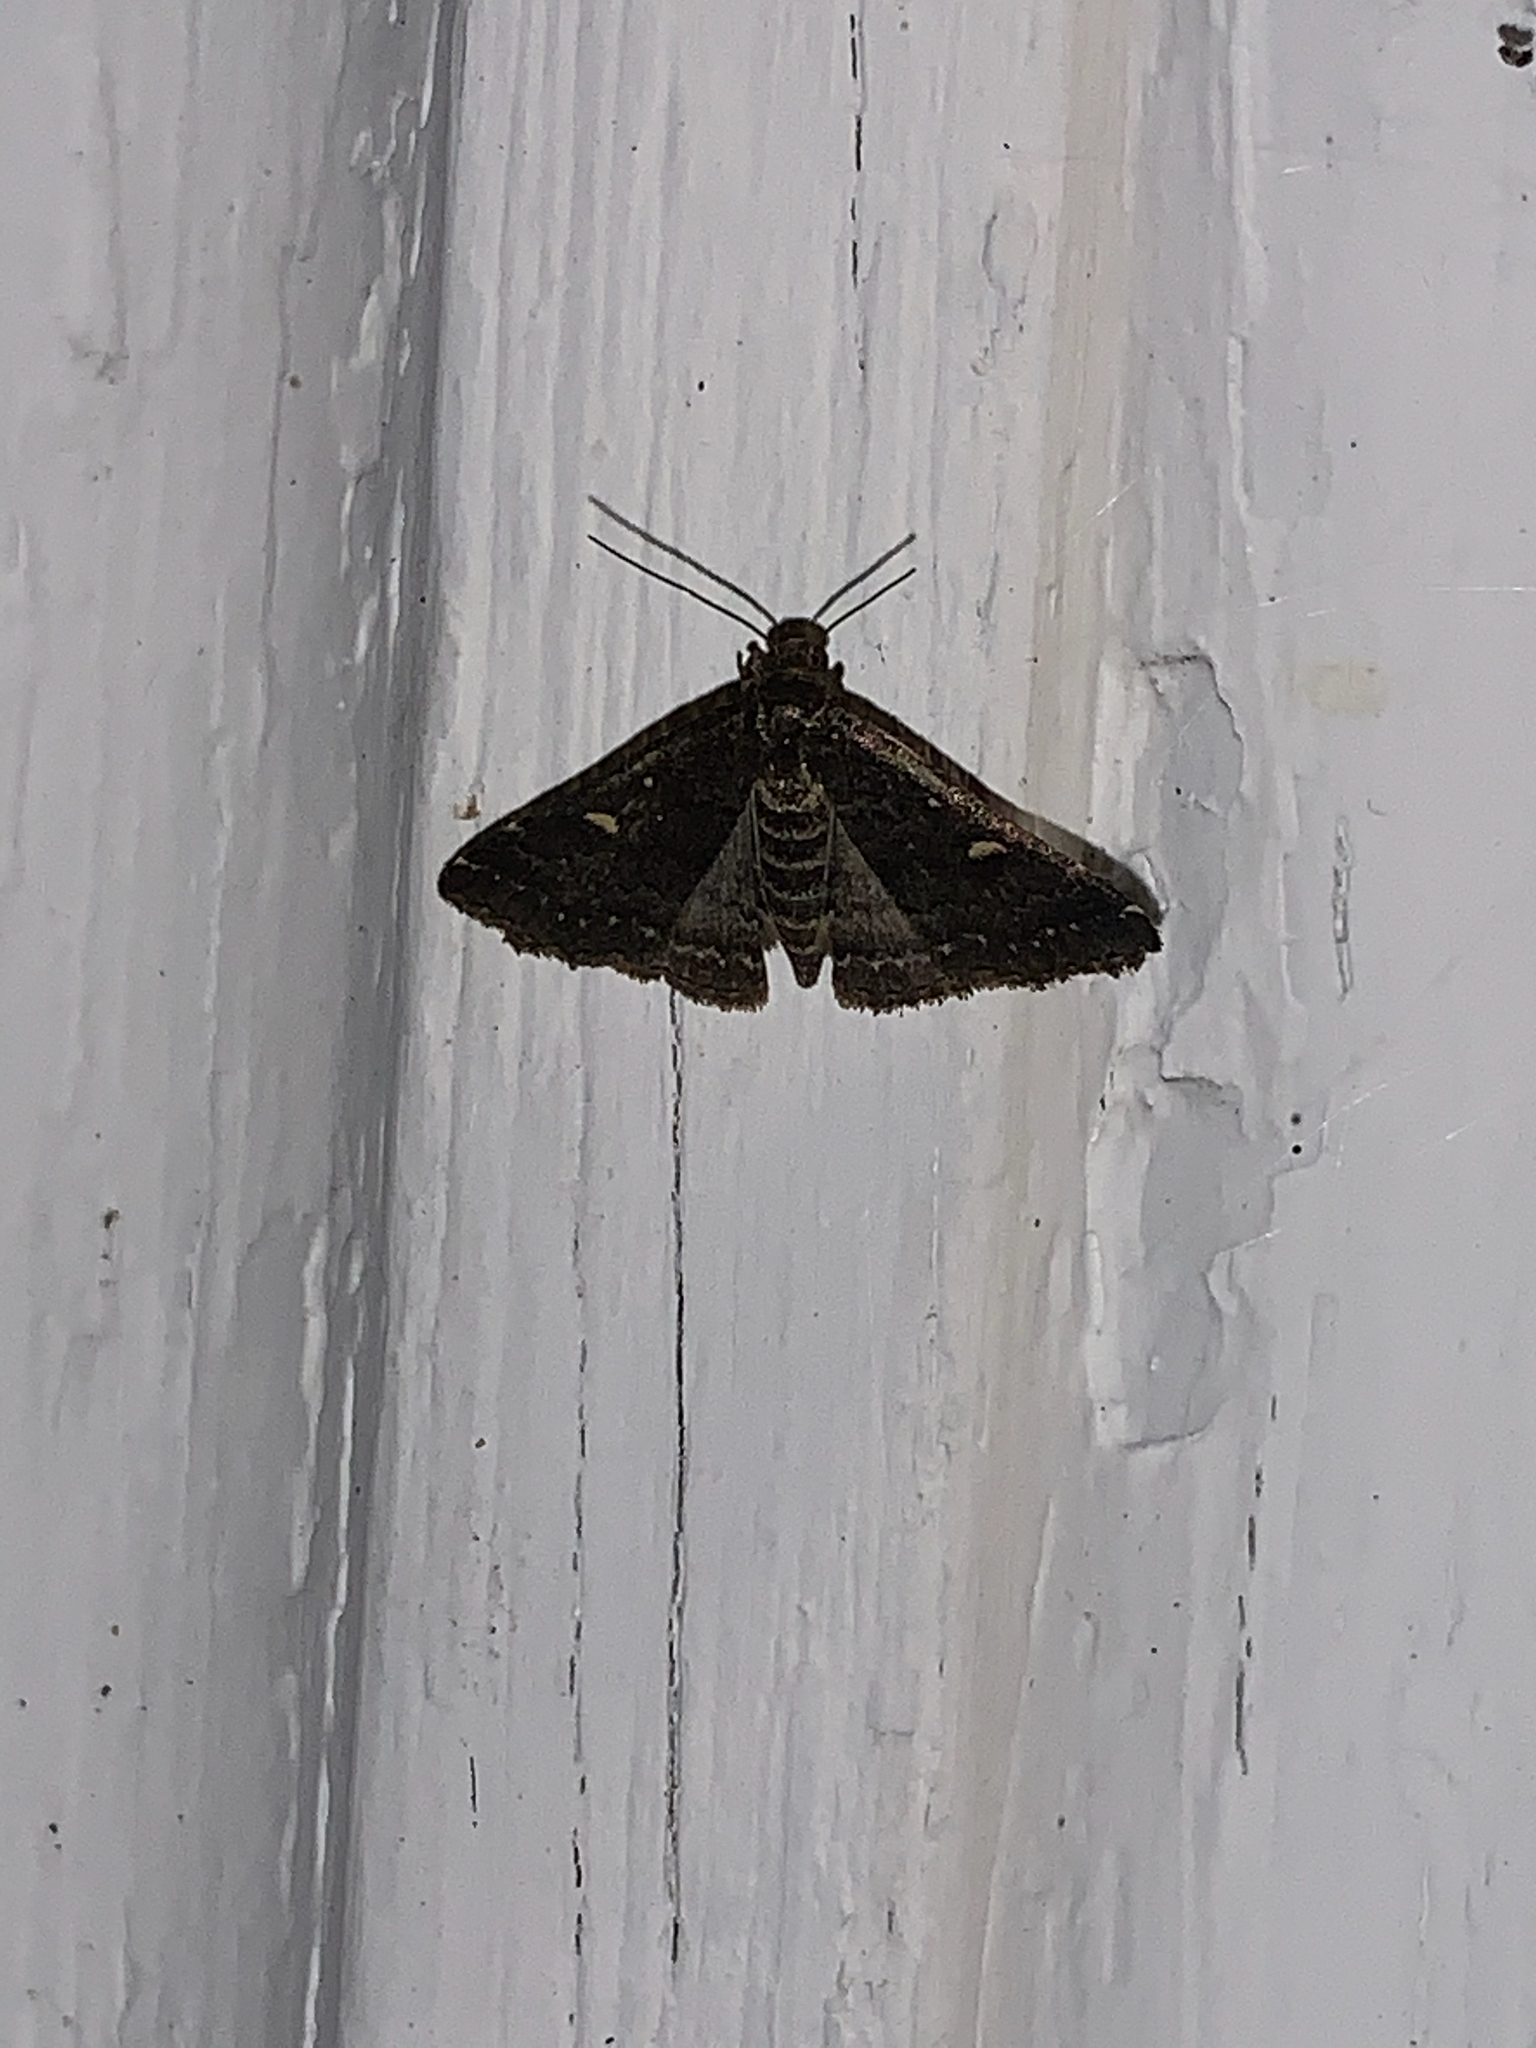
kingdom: Animalia
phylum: Arthropoda
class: Insecta
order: Lepidoptera
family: Erebidae
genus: Tetanolita
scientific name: Tetanolita mynesalis
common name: Smoky tetanolita moth
